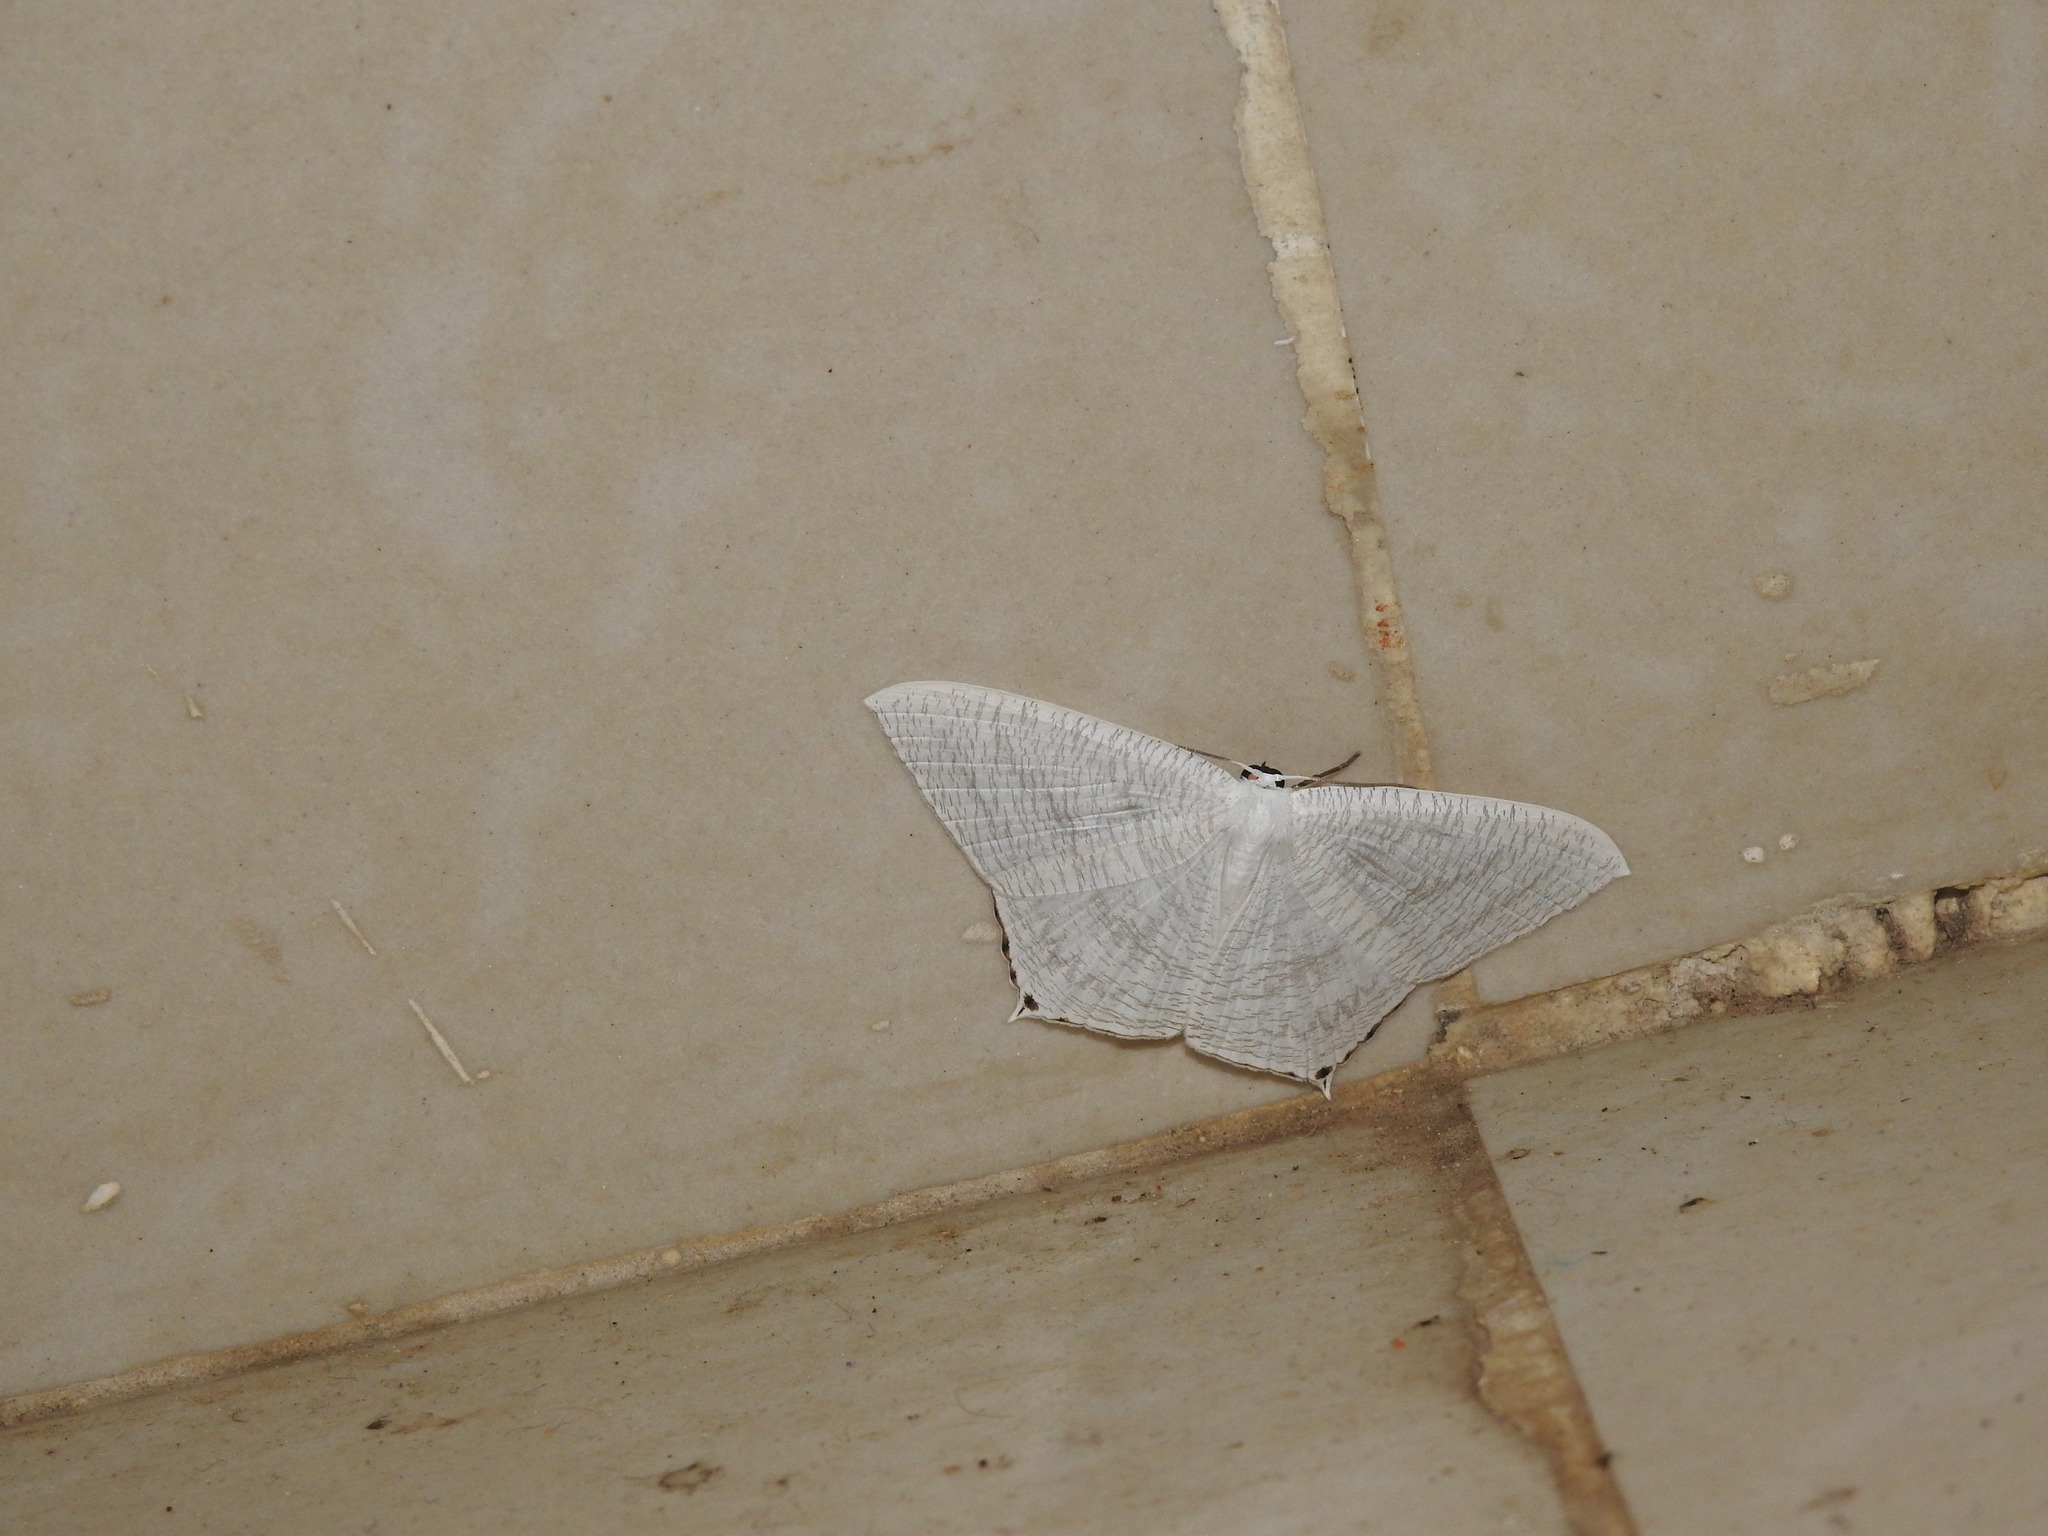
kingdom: Animalia
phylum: Arthropoda
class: Insecta
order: Lepidoptera
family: Uraniidae
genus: Micronia
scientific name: Micronia aculeata
